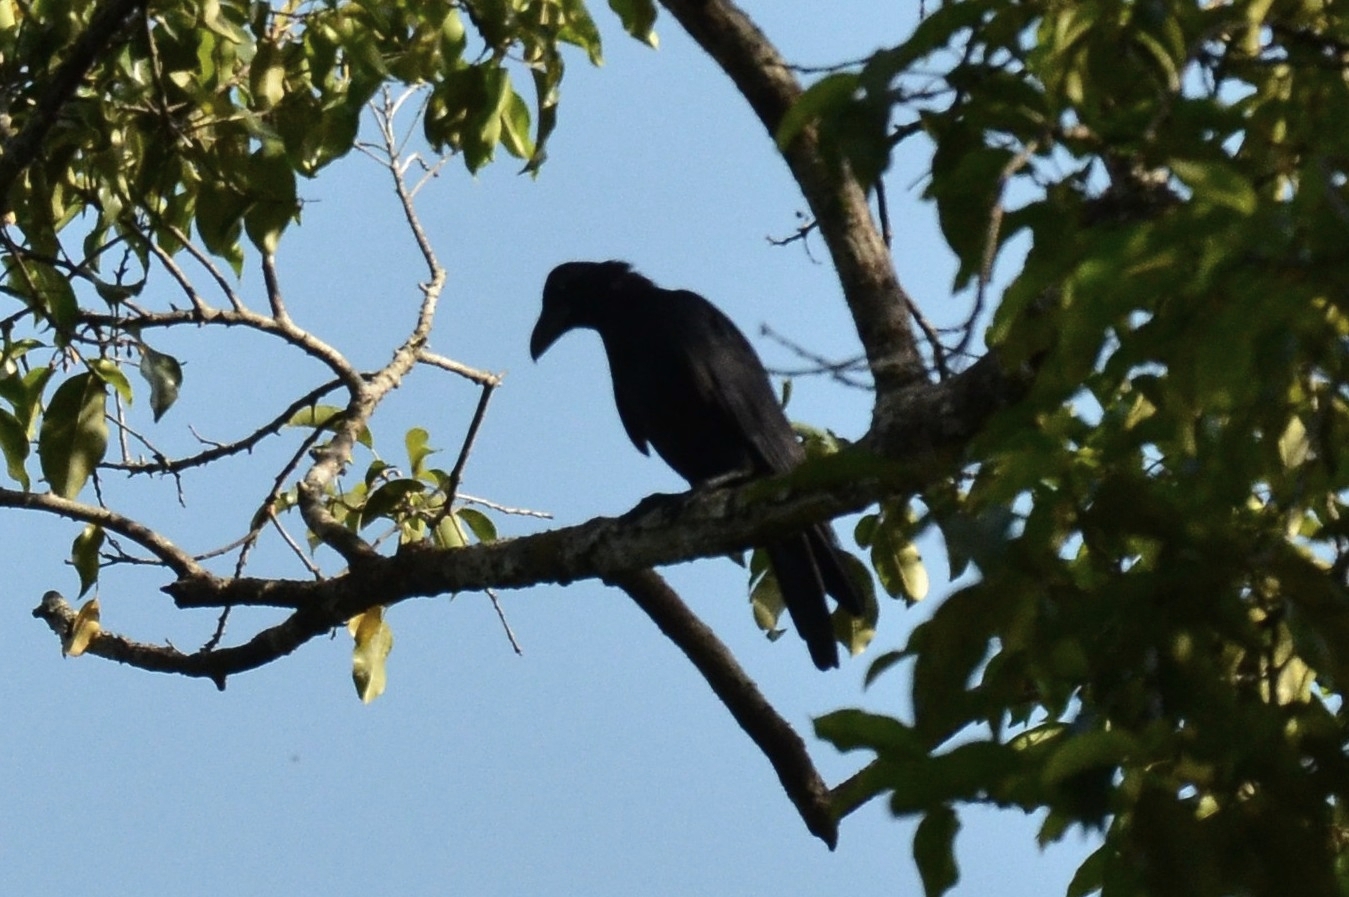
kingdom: Animalia
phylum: Chordata
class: Aves
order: Passeriformes
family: Corvidae
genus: Corvus
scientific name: Corvus macrorhynchos
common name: Large-billed crow
